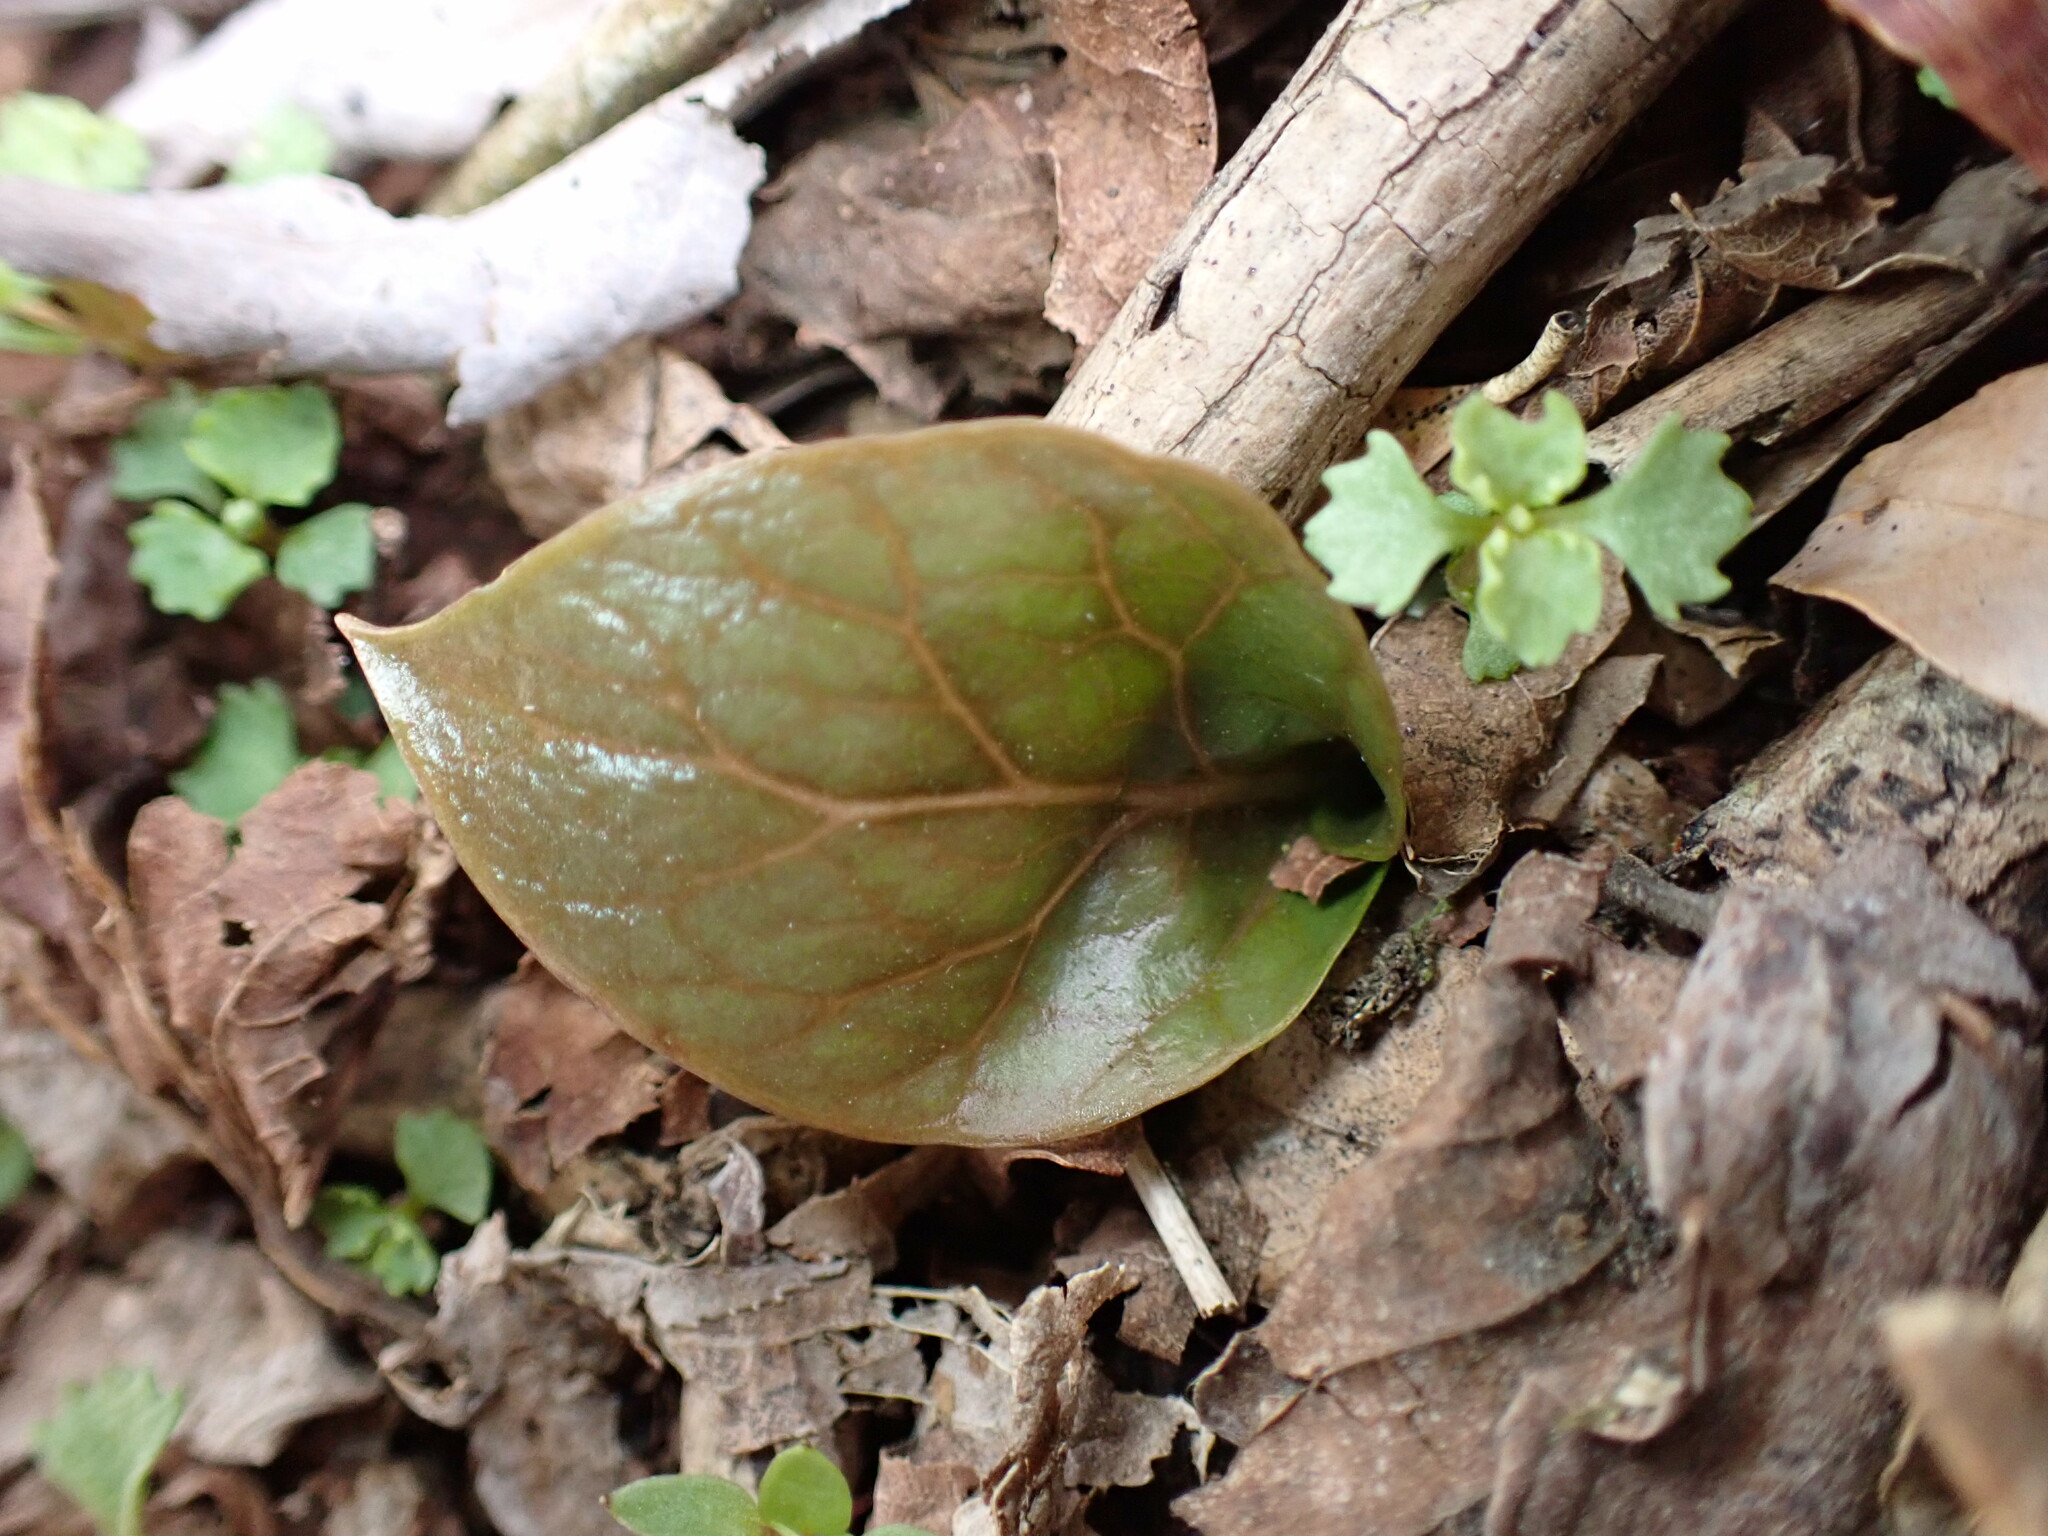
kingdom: Plantae
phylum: Tracheophyta
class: Liliopsida
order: Liliales
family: Liliaceae
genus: Cardiocrinum
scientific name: Cardiocrinum cordatum
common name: Lily
